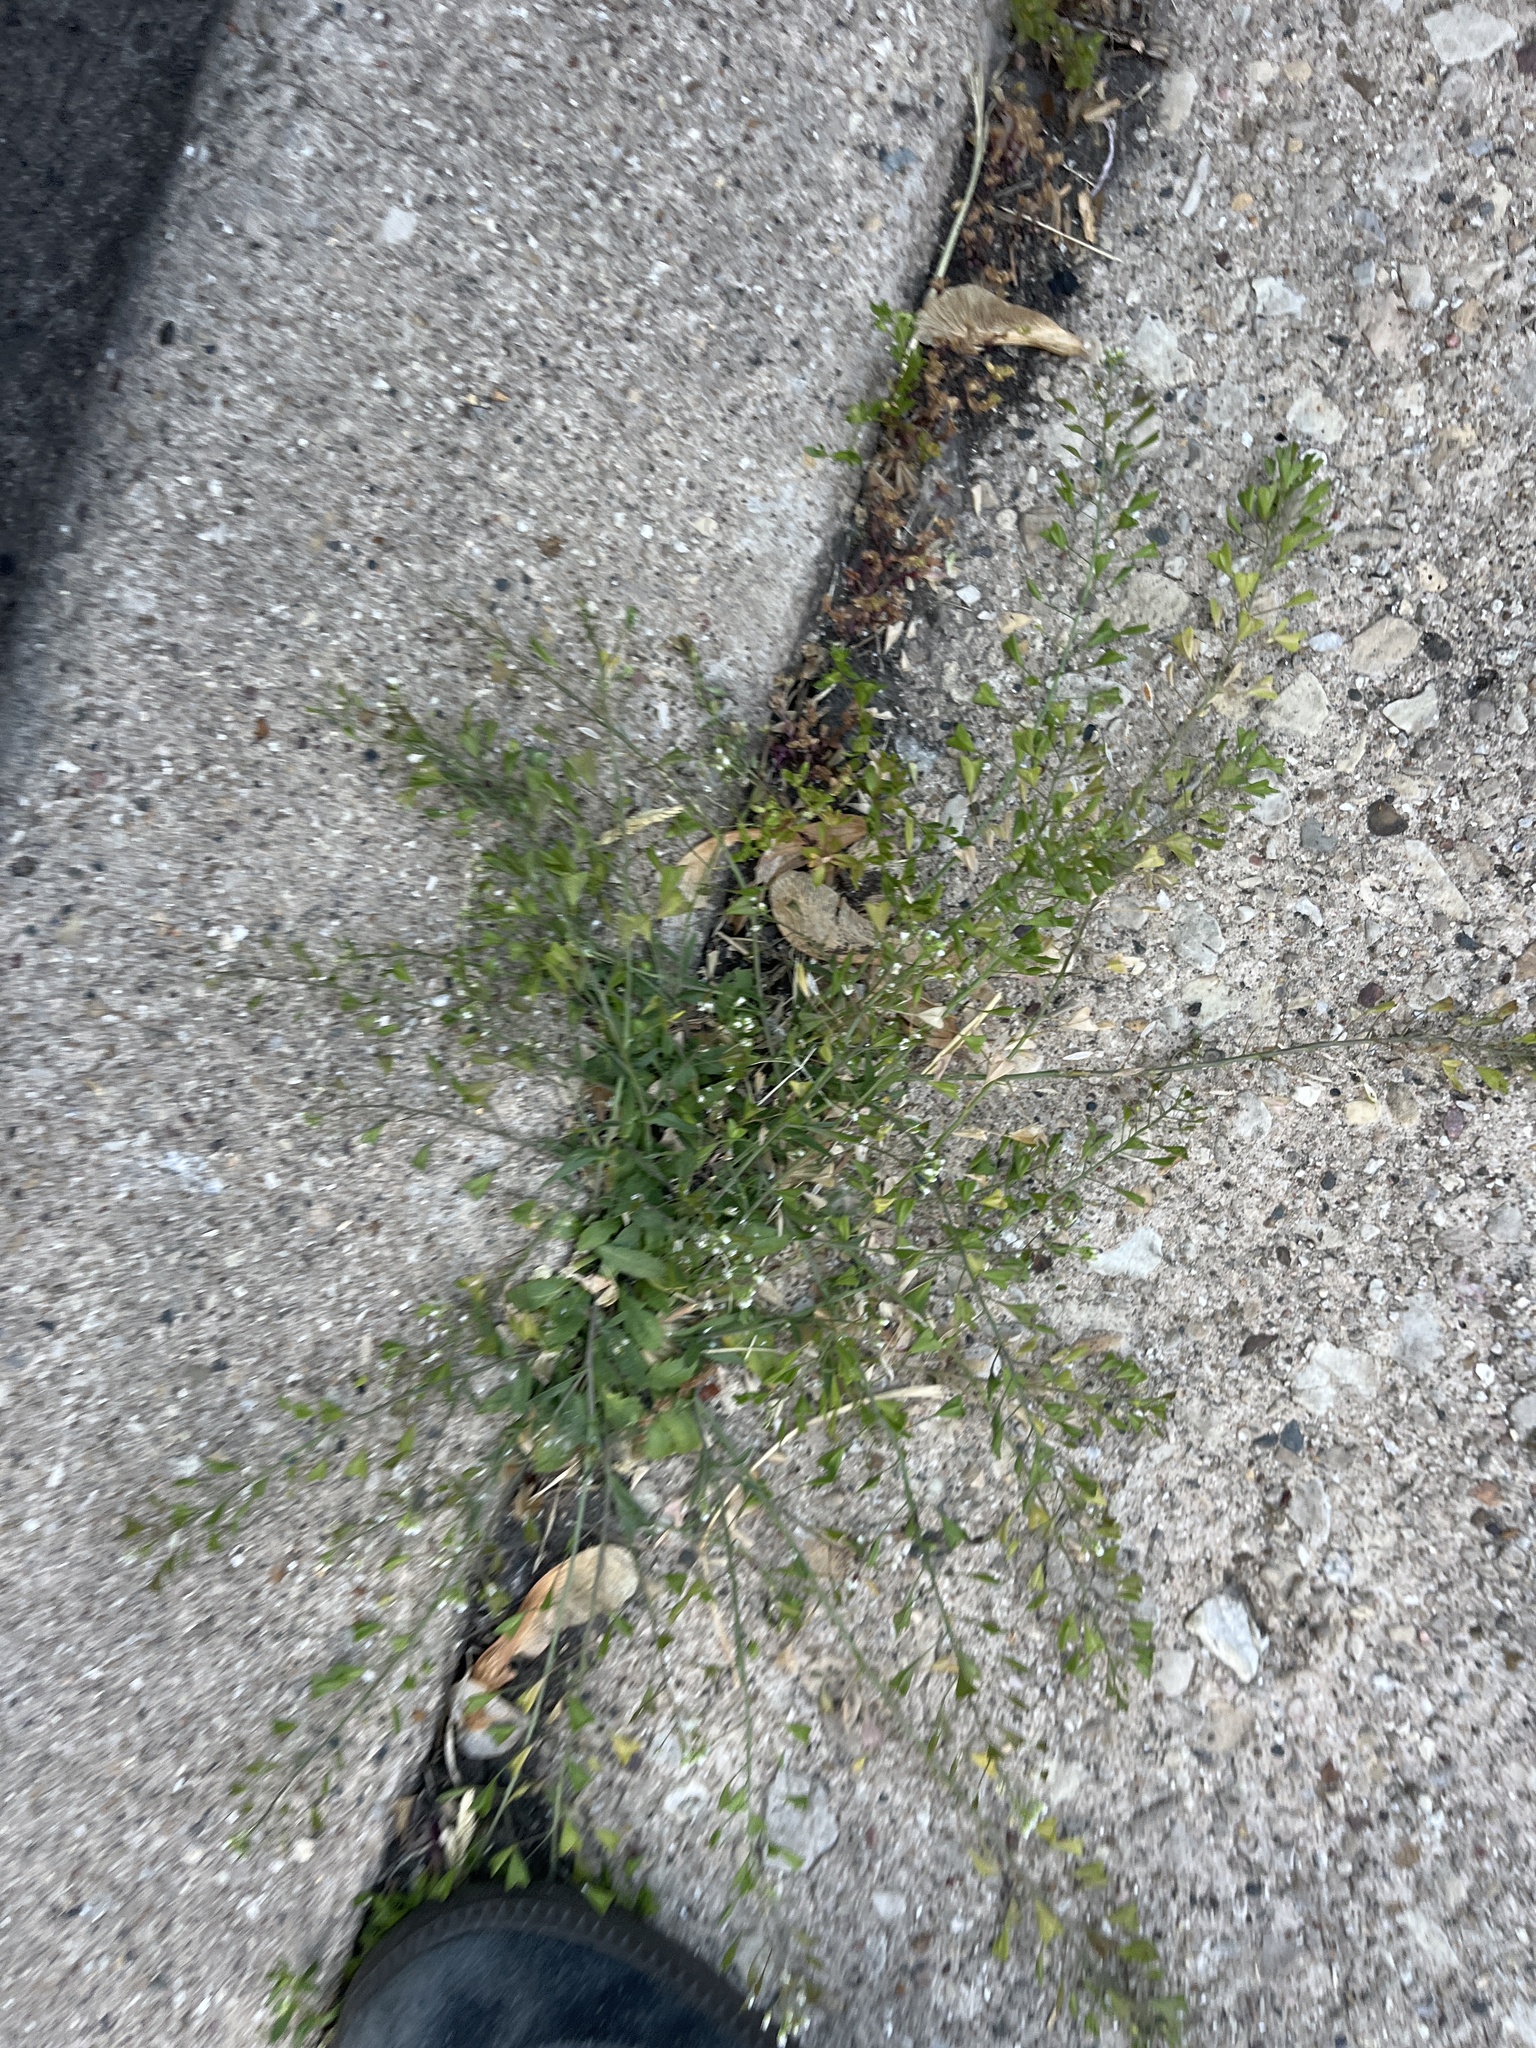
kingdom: Plantae
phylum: Tracheophyta
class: Magnoliopsida
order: Brassicales
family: Brassicaceae
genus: Capsella
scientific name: Capsella bursa-pastoris
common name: Shepherd's purse
